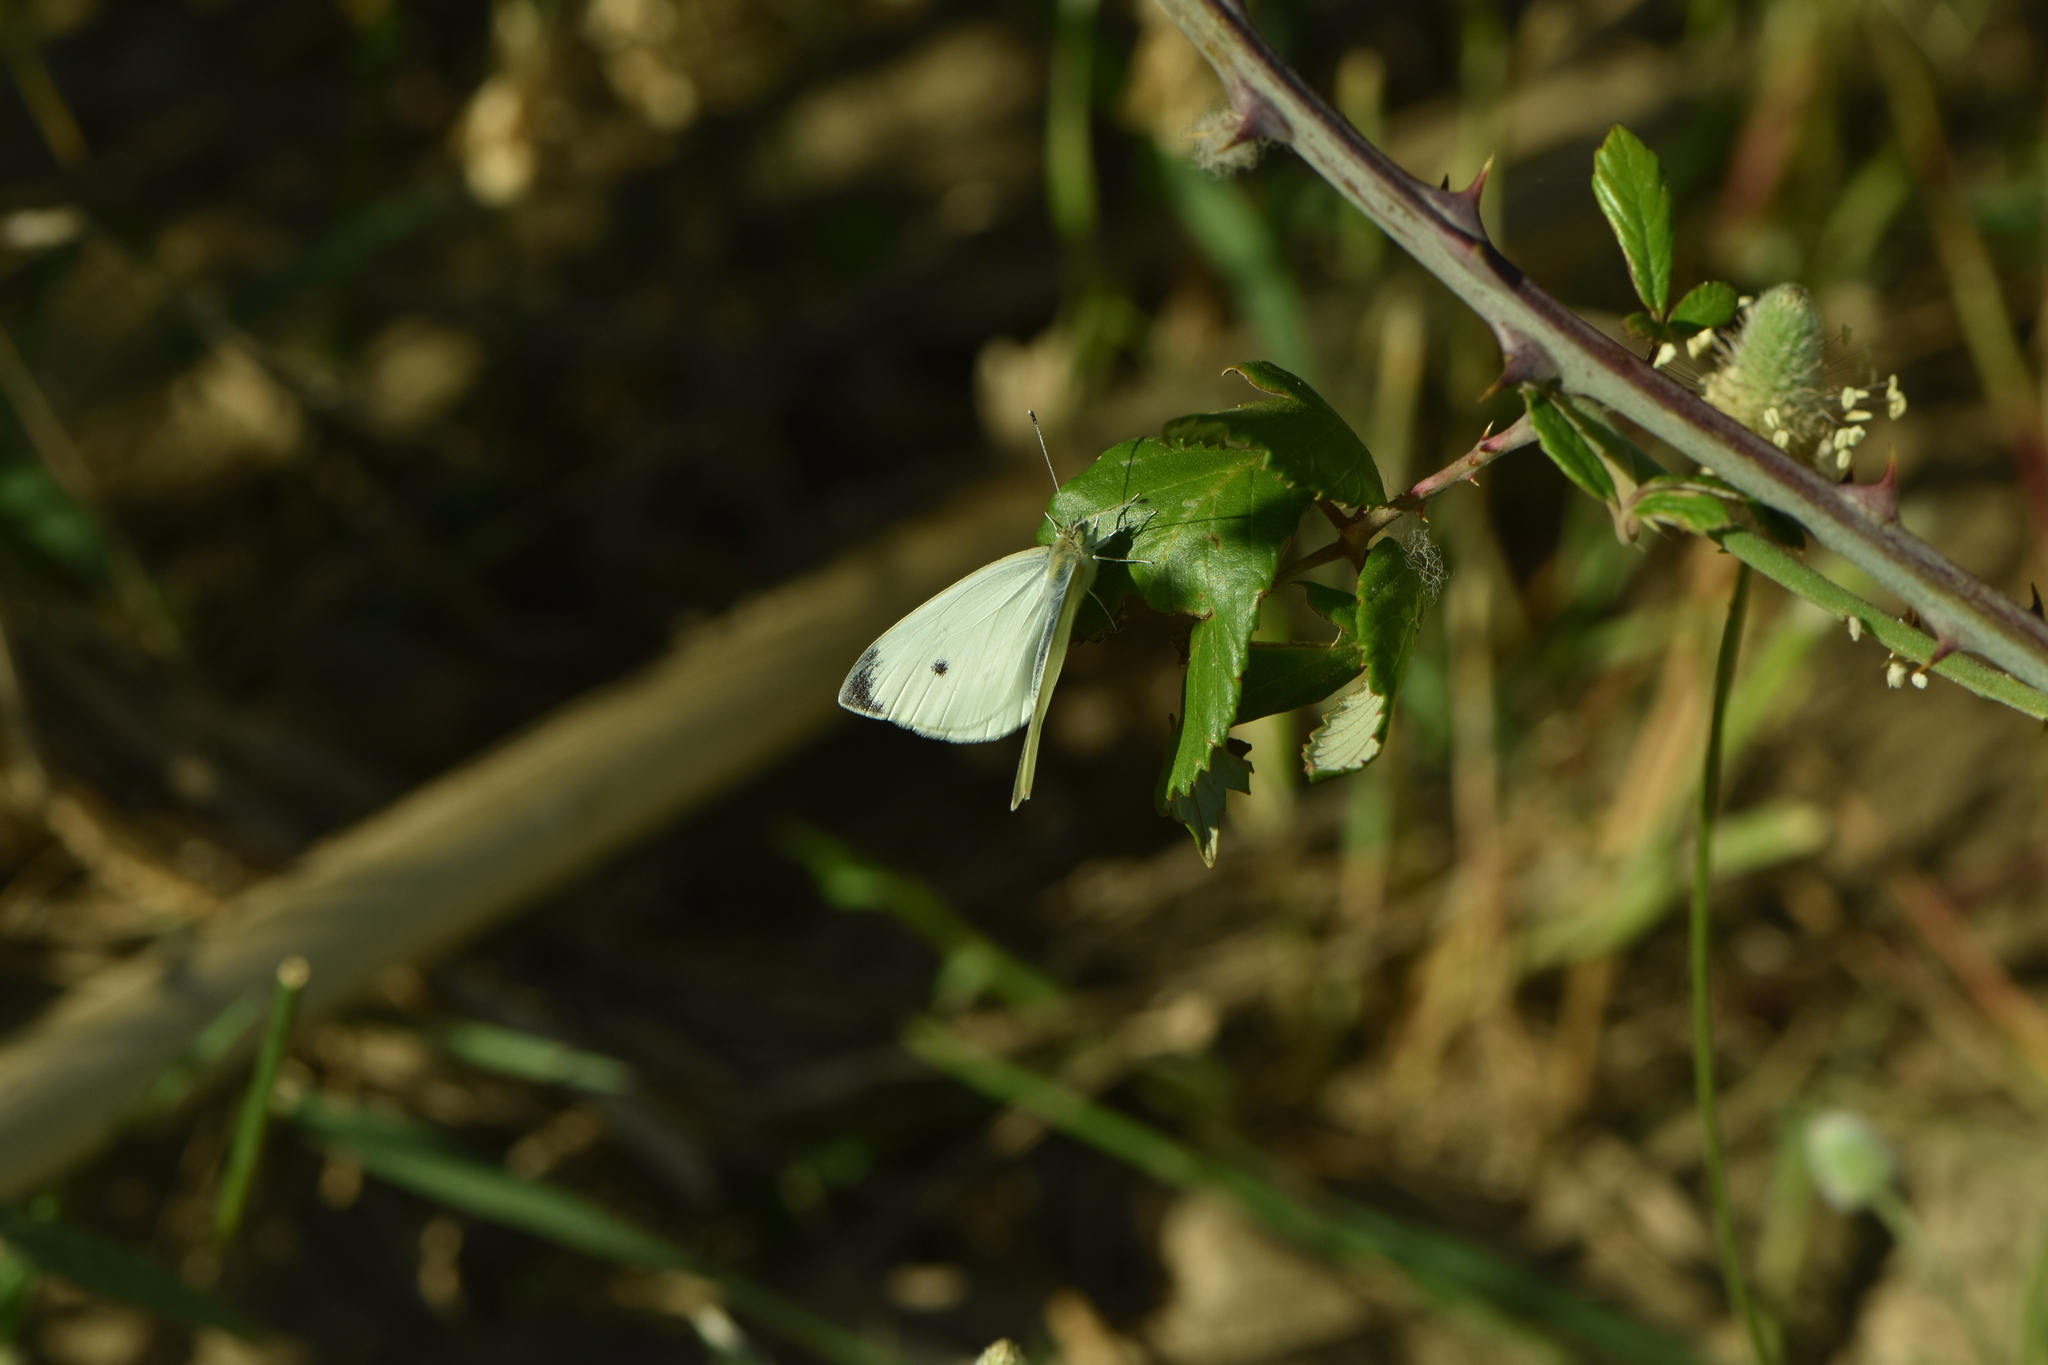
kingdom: Animalia
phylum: Arthropoda
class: Insecta
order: Lepidoptera
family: Pieridae
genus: Pieris
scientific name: Pieris rapae
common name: Small white
